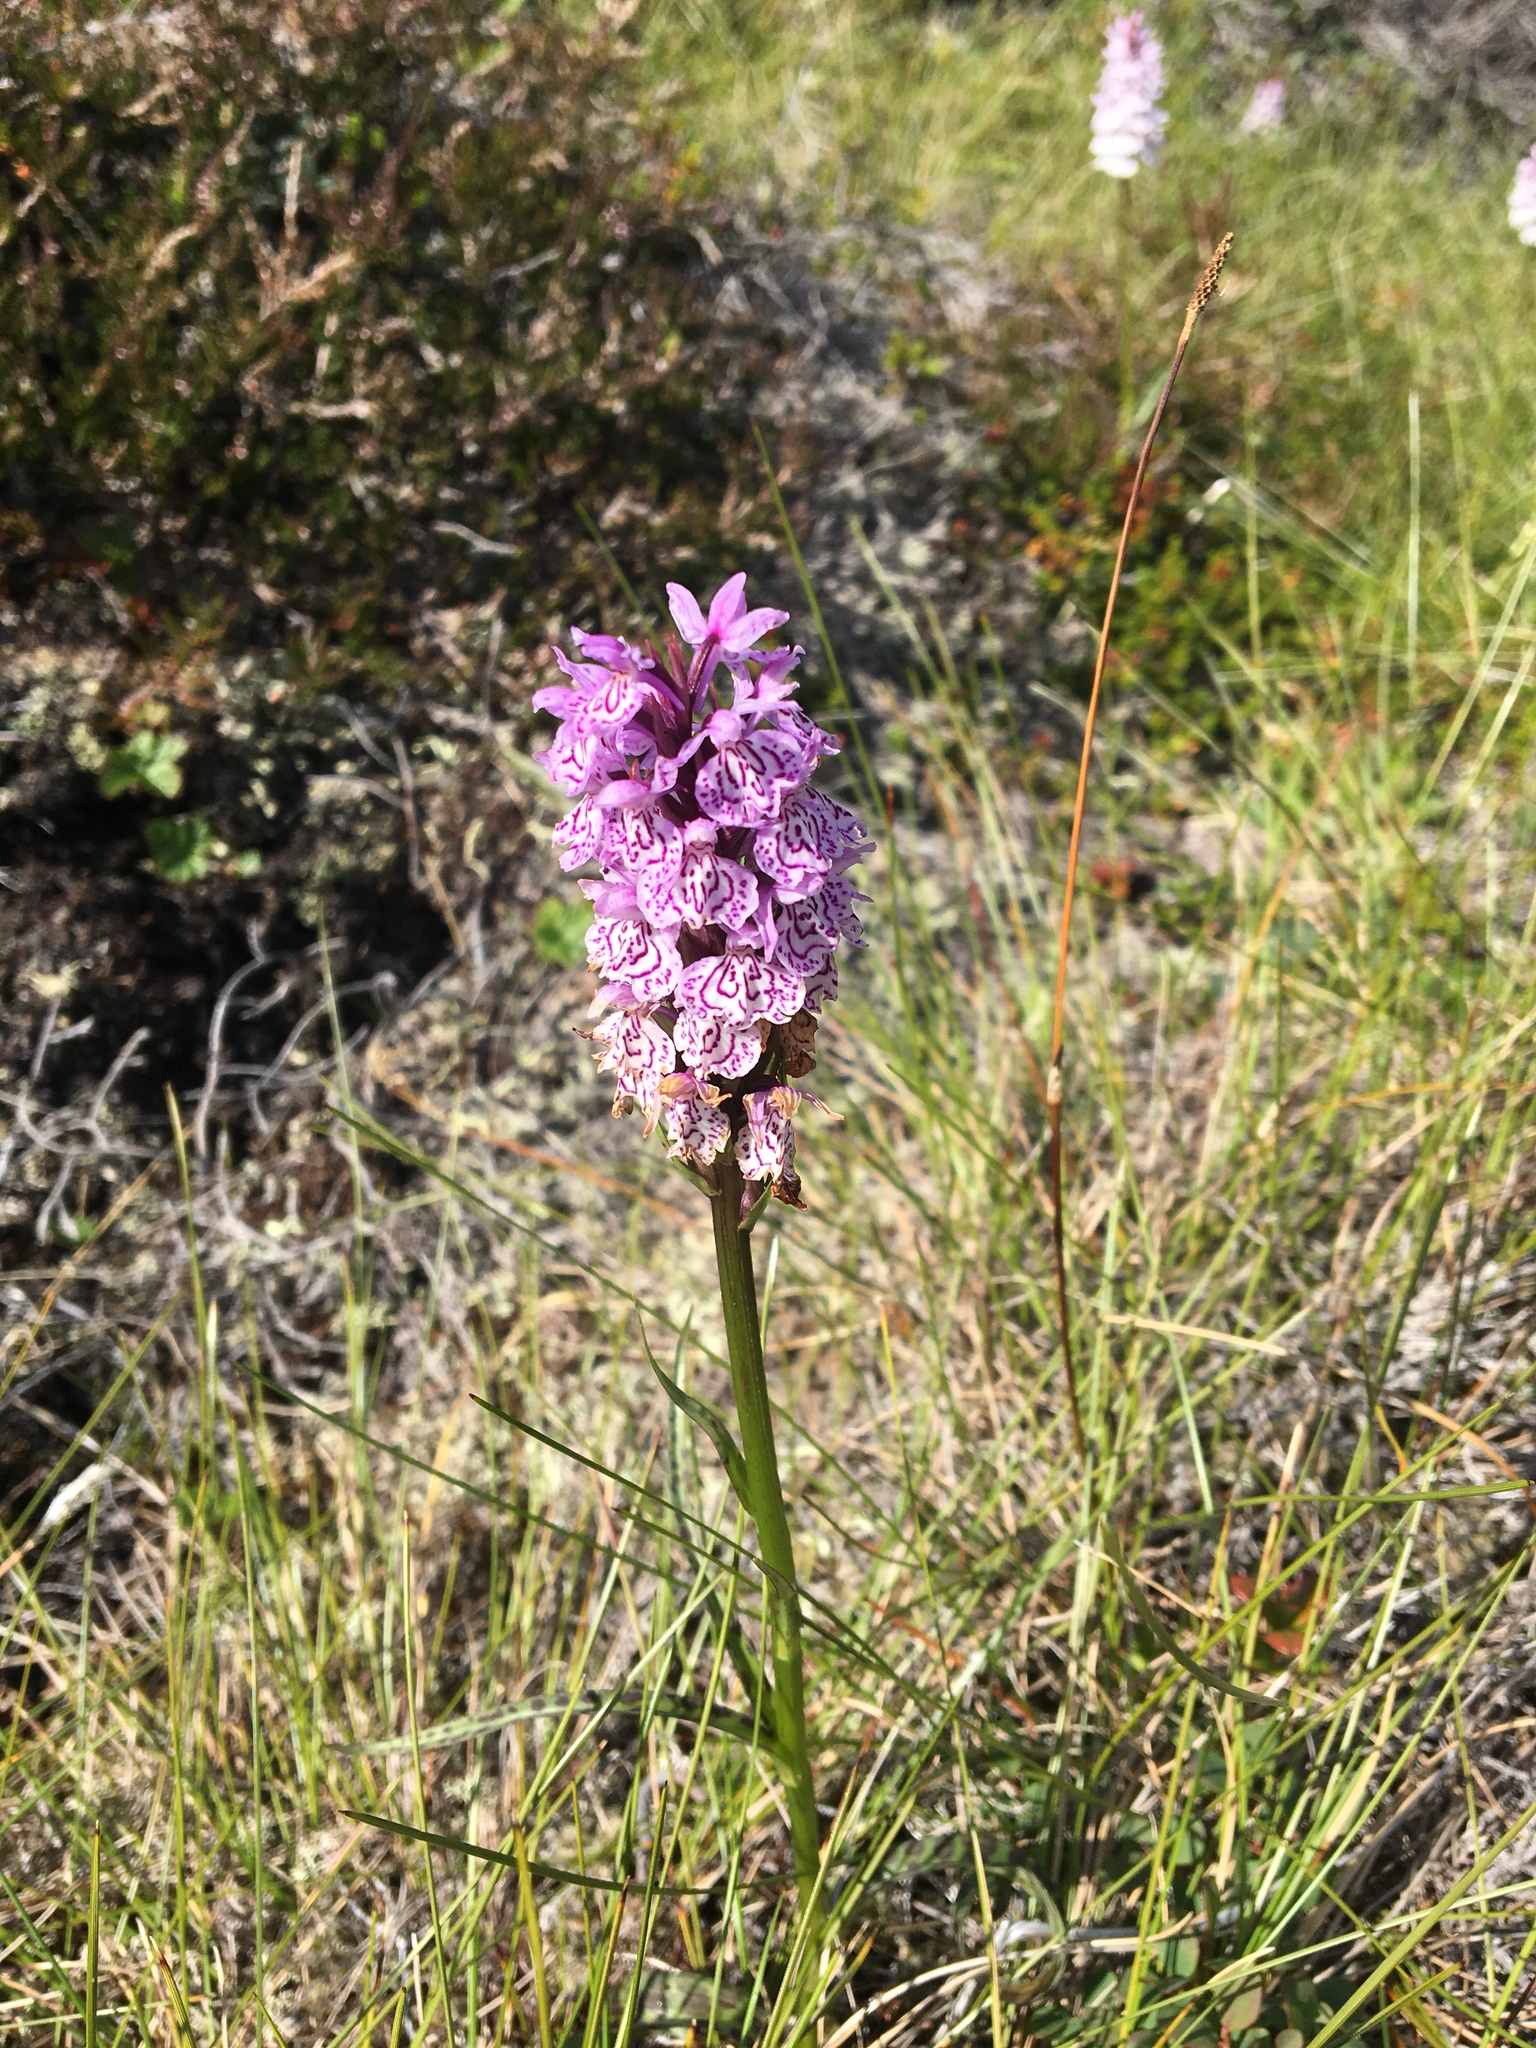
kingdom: Plantae
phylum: Tracheophyta
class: Liliopsida
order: Asparagales
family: Orchidaceae
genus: Dactylorhiza
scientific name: Dactylorhiza maculata
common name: Heath spotted-orchid
